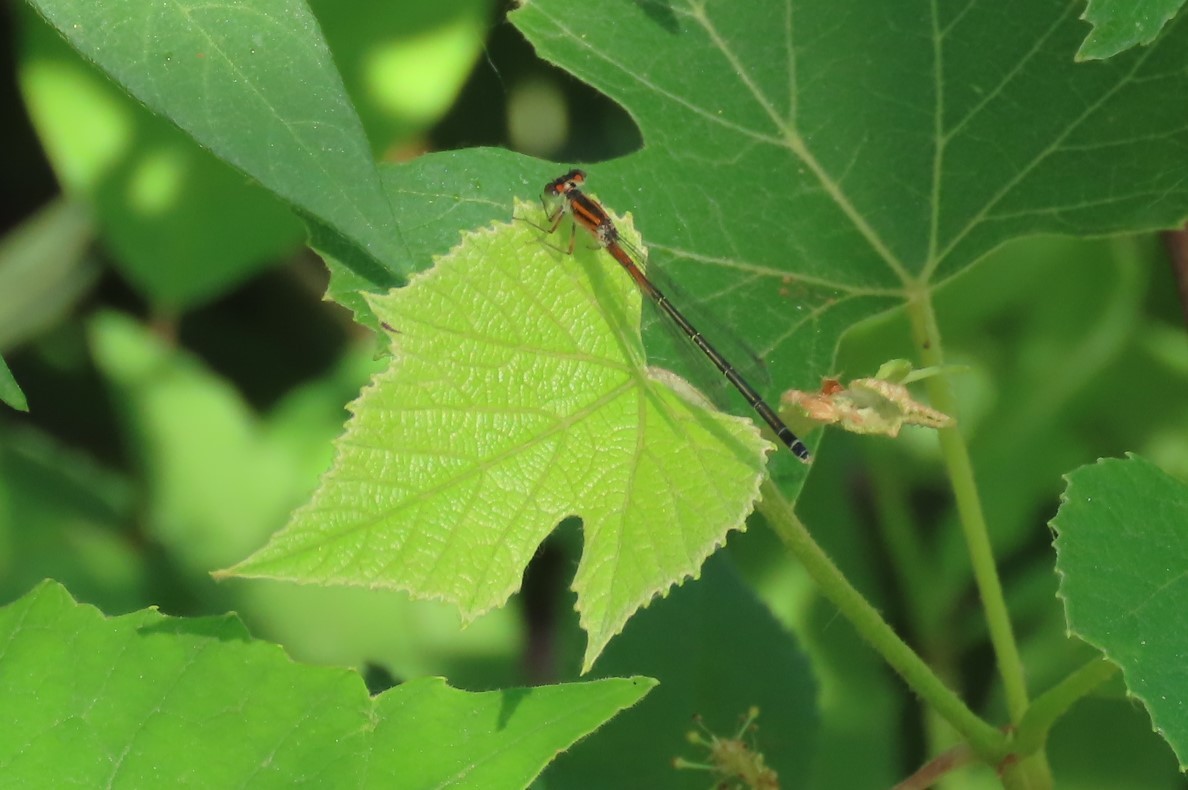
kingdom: Animalia
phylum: Arthropoda
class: Insecta
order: Odonata
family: Coenagrionidae
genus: Ischnura
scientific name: Ischnura verticalis
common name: Eastern forktail
